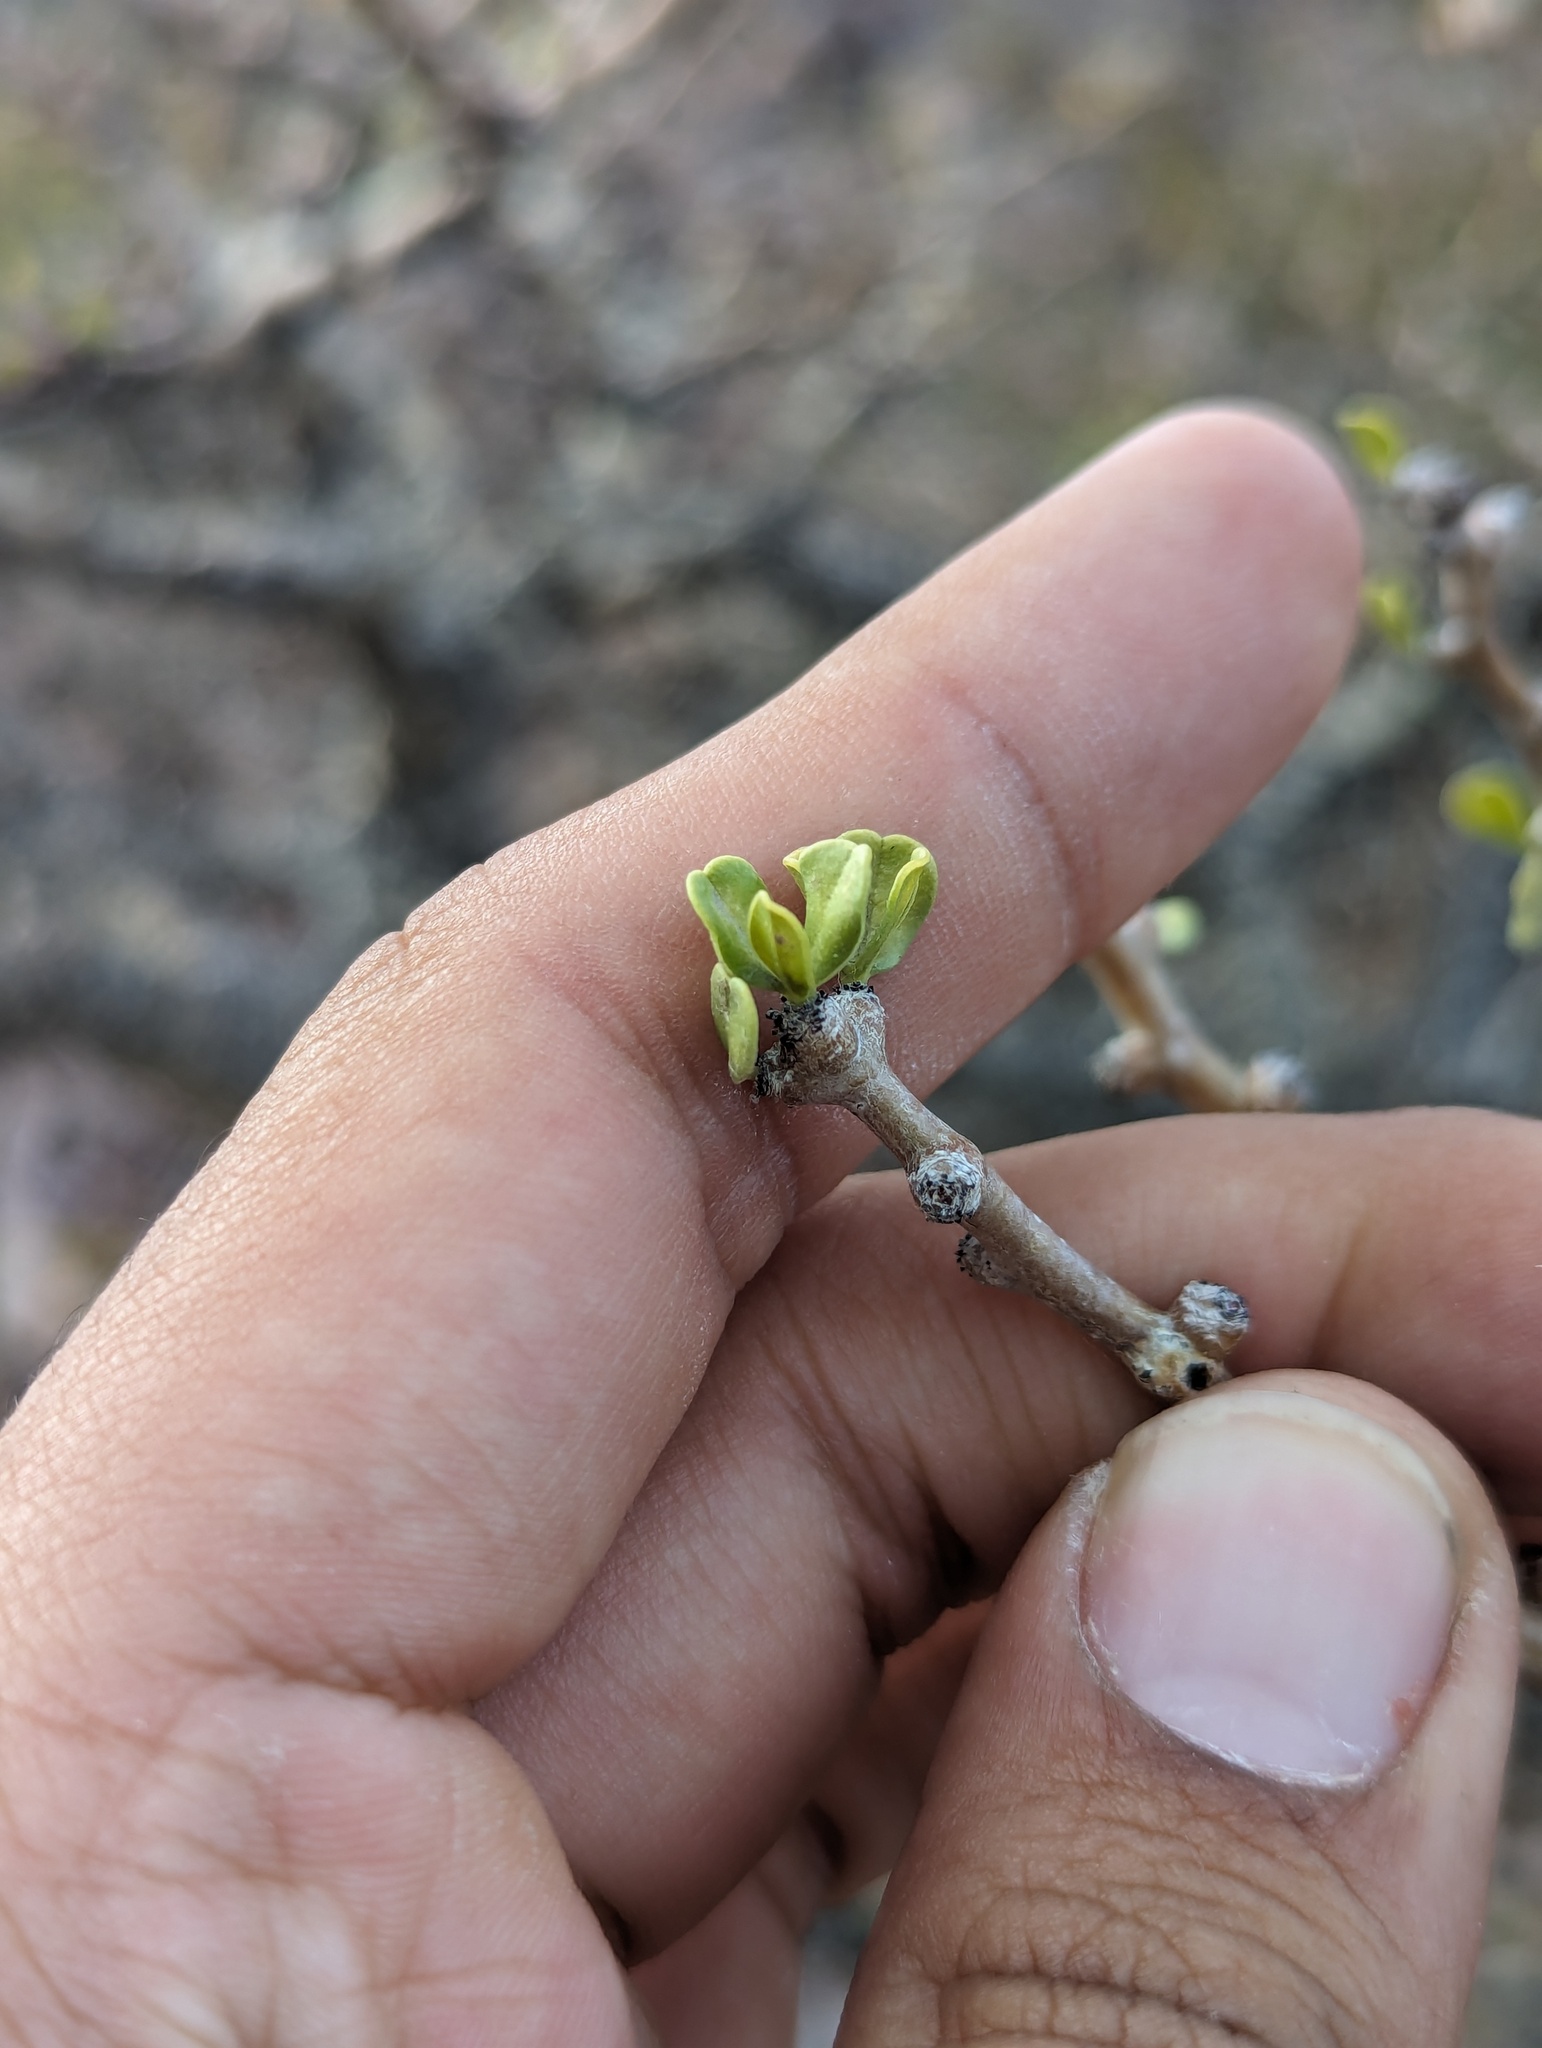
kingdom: Plantae
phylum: Tracheophyta
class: Magnoliopsida
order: Malpighiales
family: Euphorbiaceae
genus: Jatropha
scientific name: Jatropha cuneata
